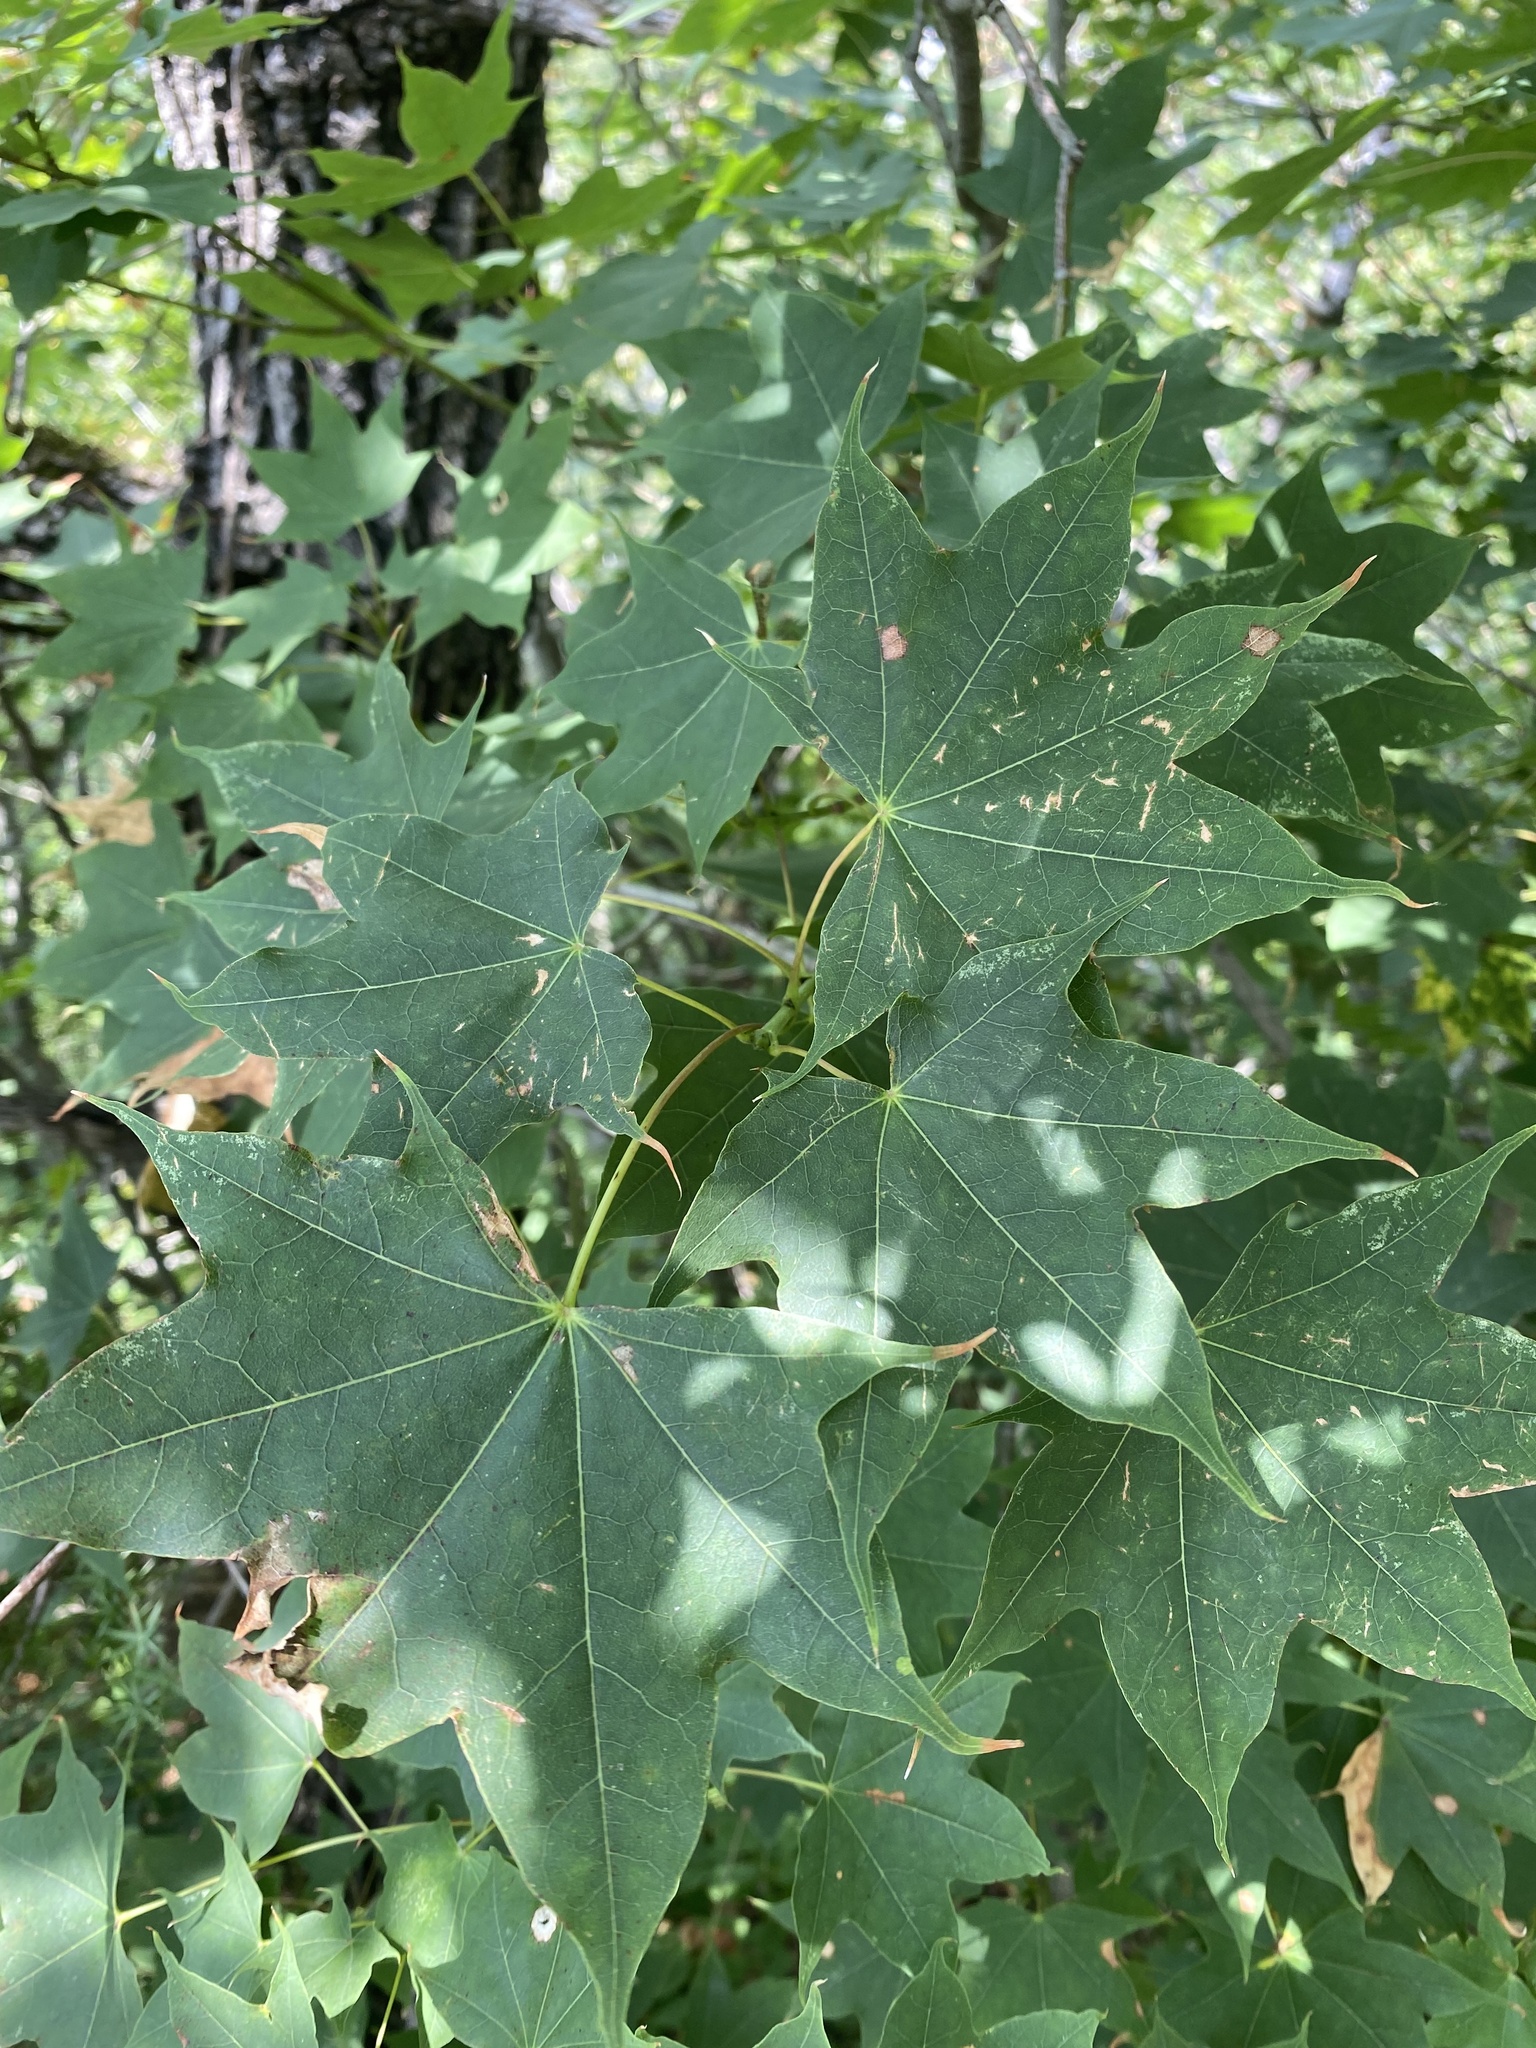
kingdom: Plantae
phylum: Tracheophyta
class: Magnoliopsida
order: Sapindales
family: Sapindaceae
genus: Acer
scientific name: Acer cappadocicum
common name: Cappadocian maple
